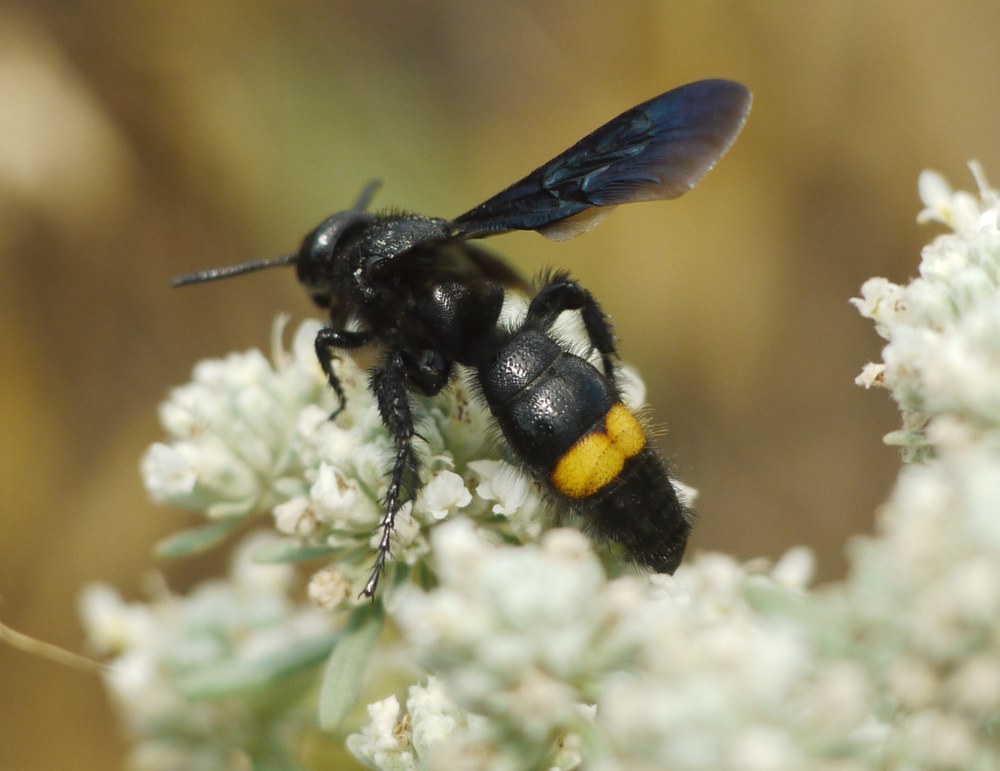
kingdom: Animalia
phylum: Arthropoda
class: Insecta
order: Hymenoptera
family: Scoliidae
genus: Scolia
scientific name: Scolia fallax
